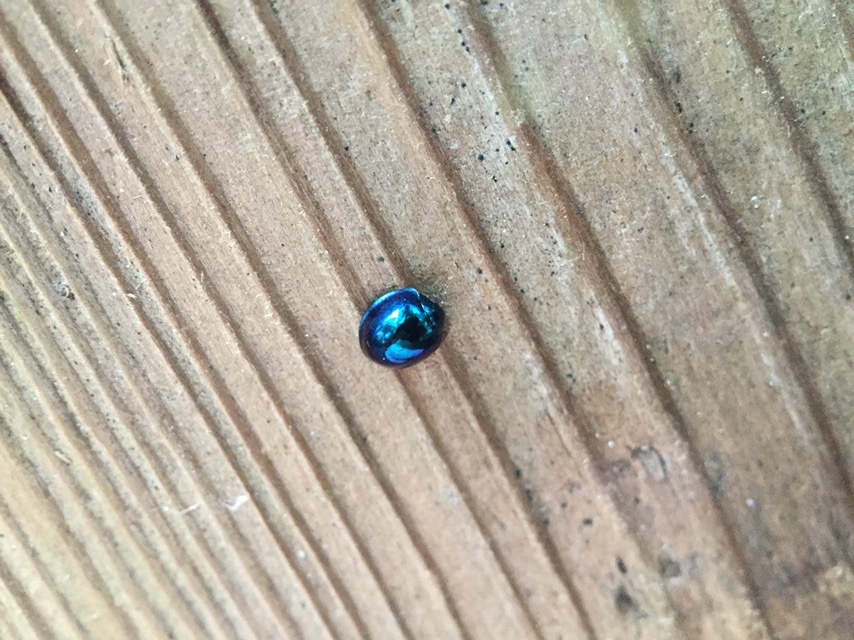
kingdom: Animalia
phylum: Arthropoda
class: Insecta
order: Coleoptera
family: Coccinellidae
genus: Halmus
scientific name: Halmus chalybeus
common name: Steel blue ladybird beetle
